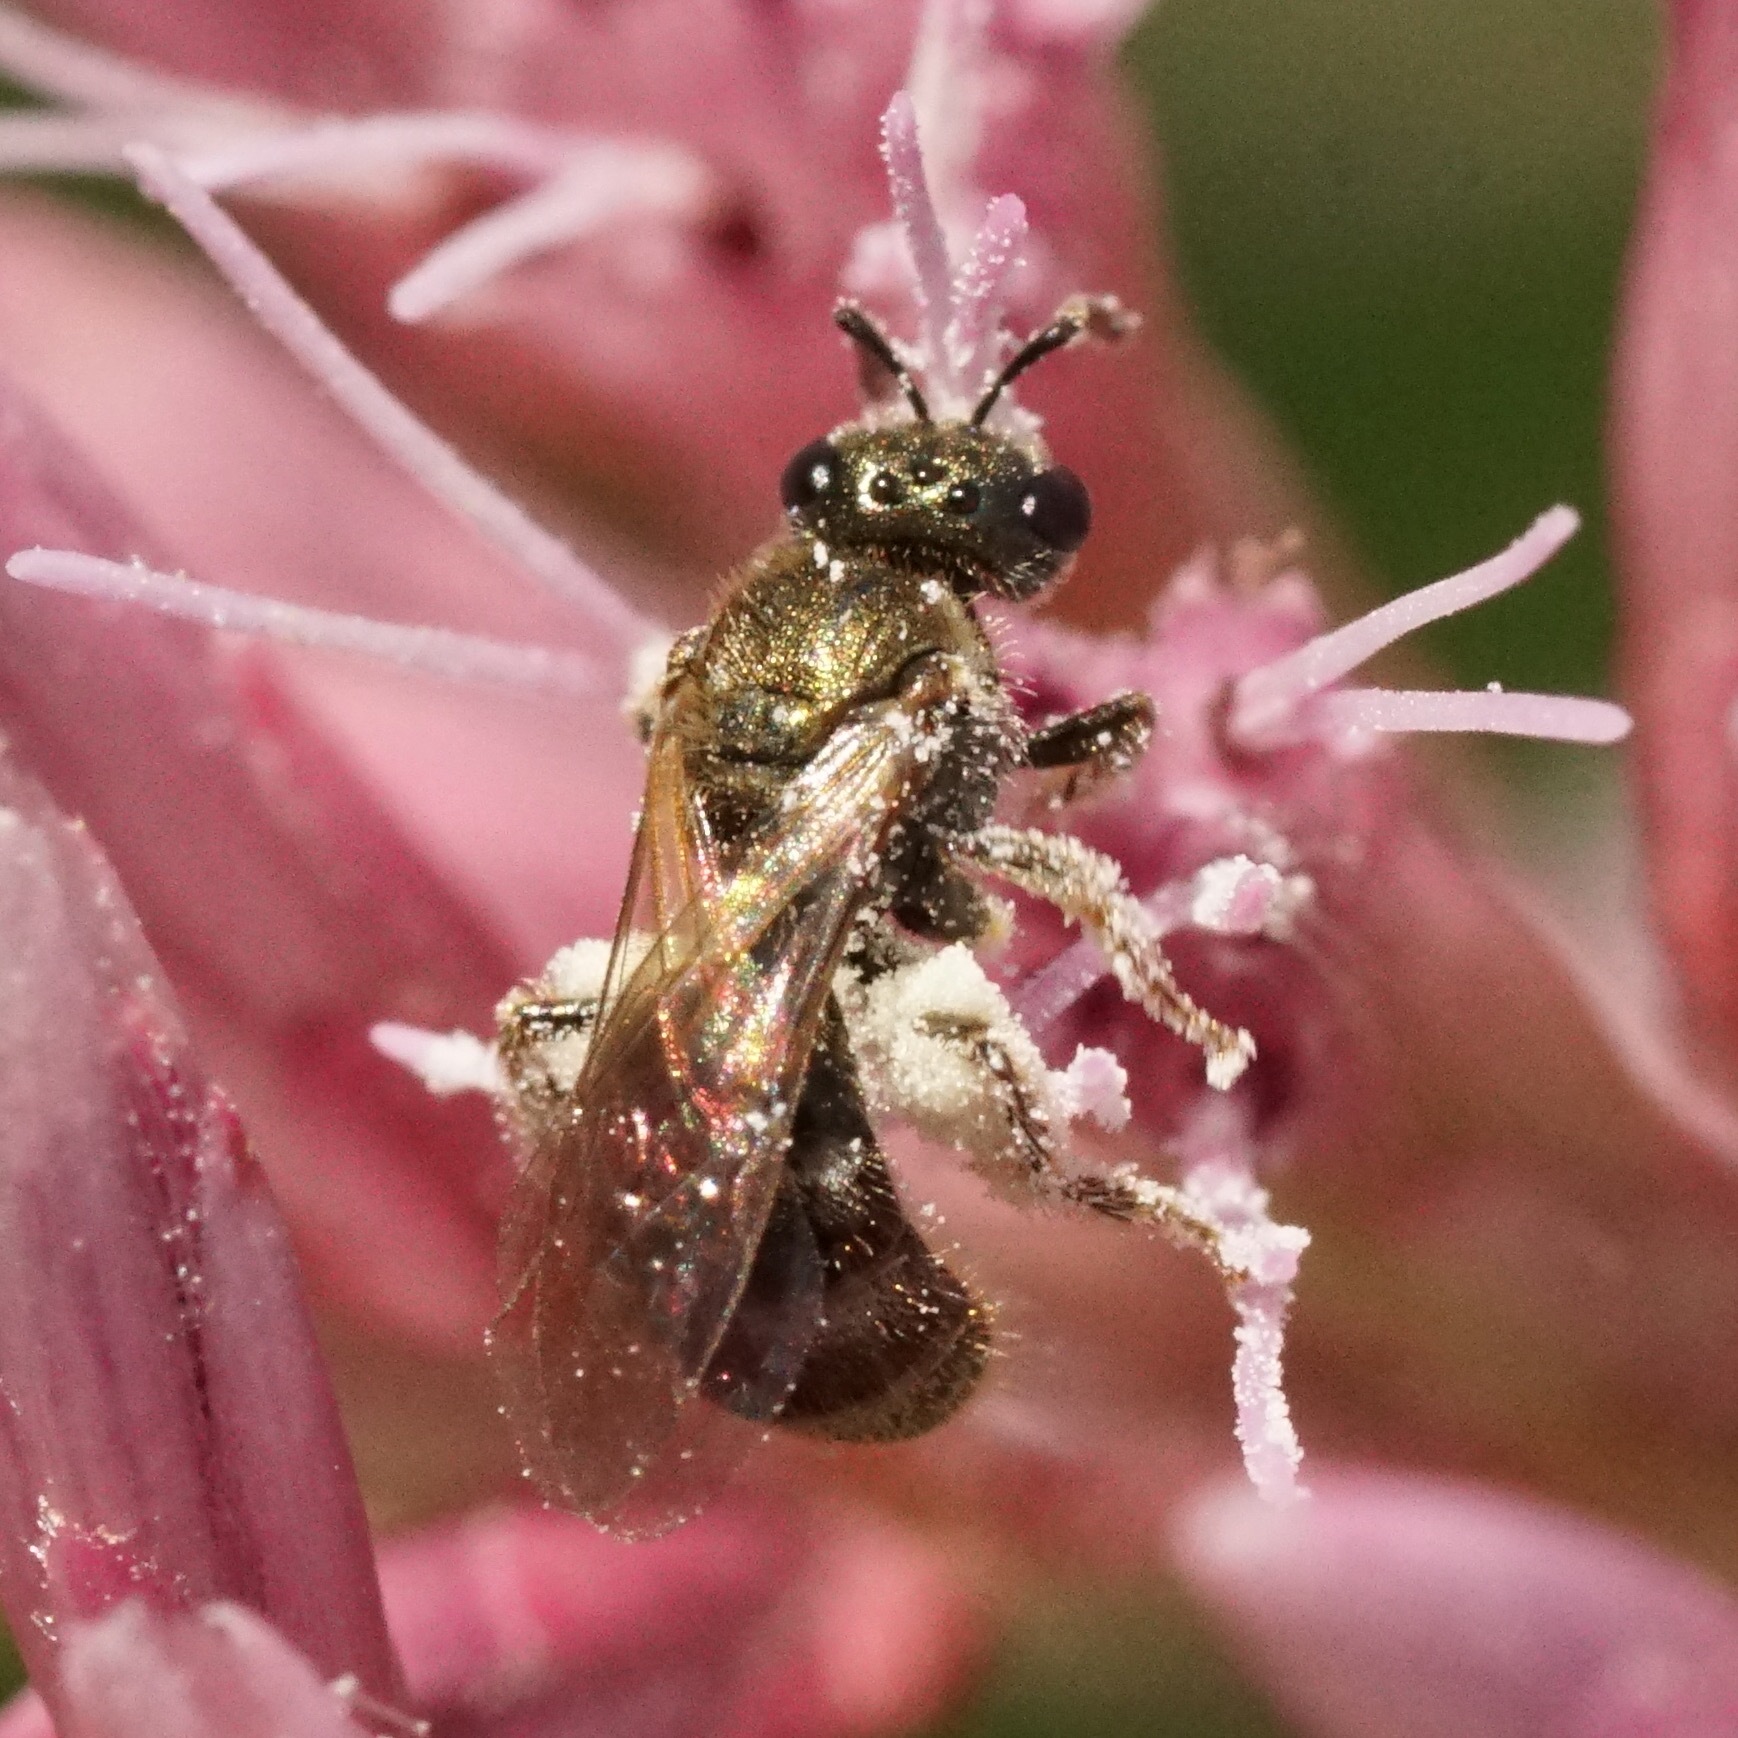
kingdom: Animalia
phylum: Arthropoda
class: Insecta
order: Hymenoptera
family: Halictidae
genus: Dialictus
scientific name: Dialictus
